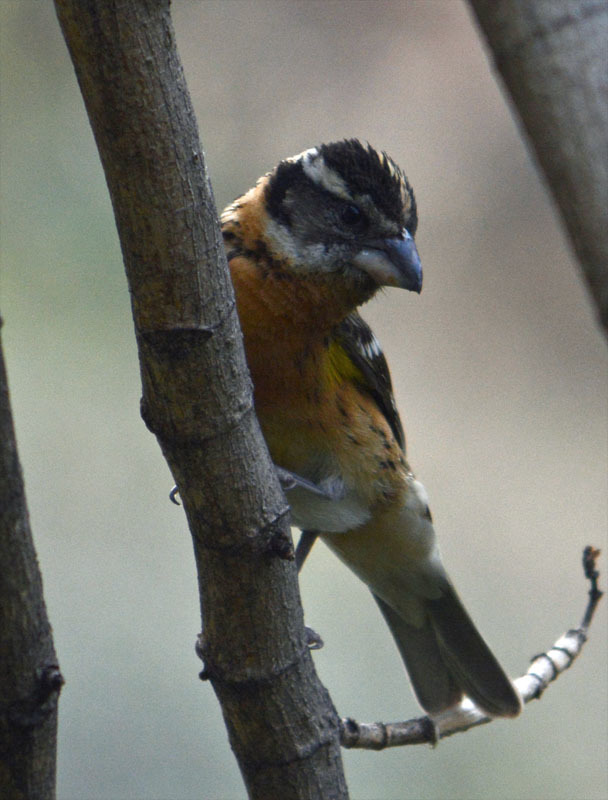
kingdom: Animalia
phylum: Chordata
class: Aves
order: Passeriformes
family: Cardinalidae
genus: Pheucticus
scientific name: Pheucticus melanocephalus
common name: Black-headed grosbeak
